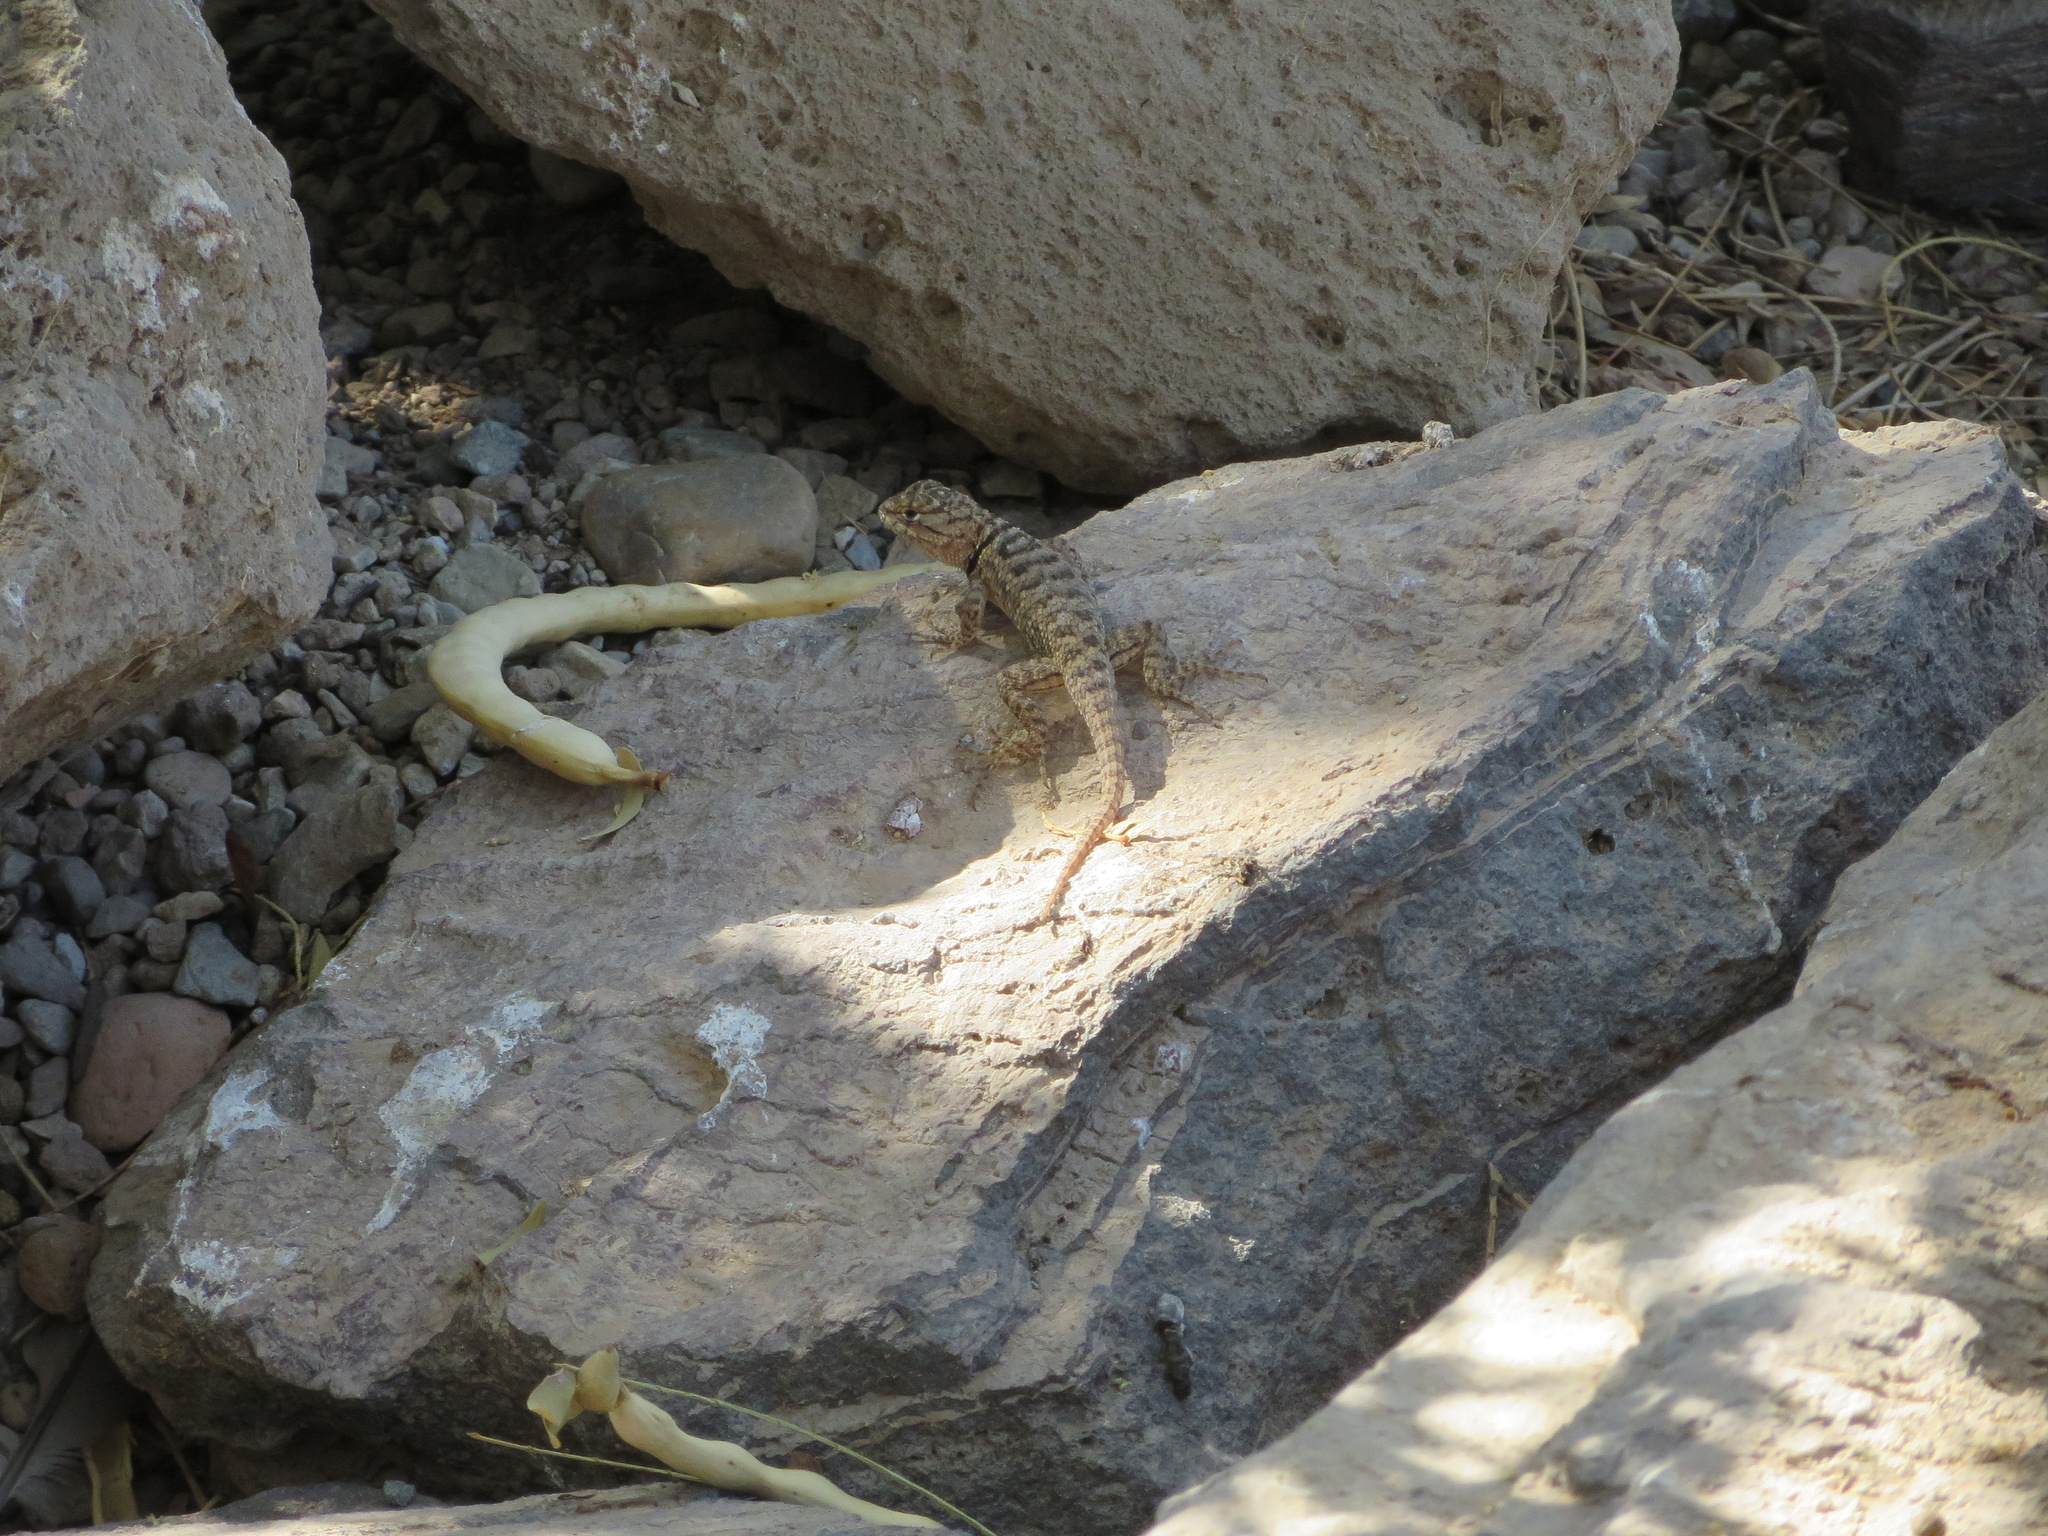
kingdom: Animalia
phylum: Chordata
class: Squamata
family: Phrynosomatidae
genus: Sceloporus
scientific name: Sceloporus magister
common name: Desert spiny lizard
